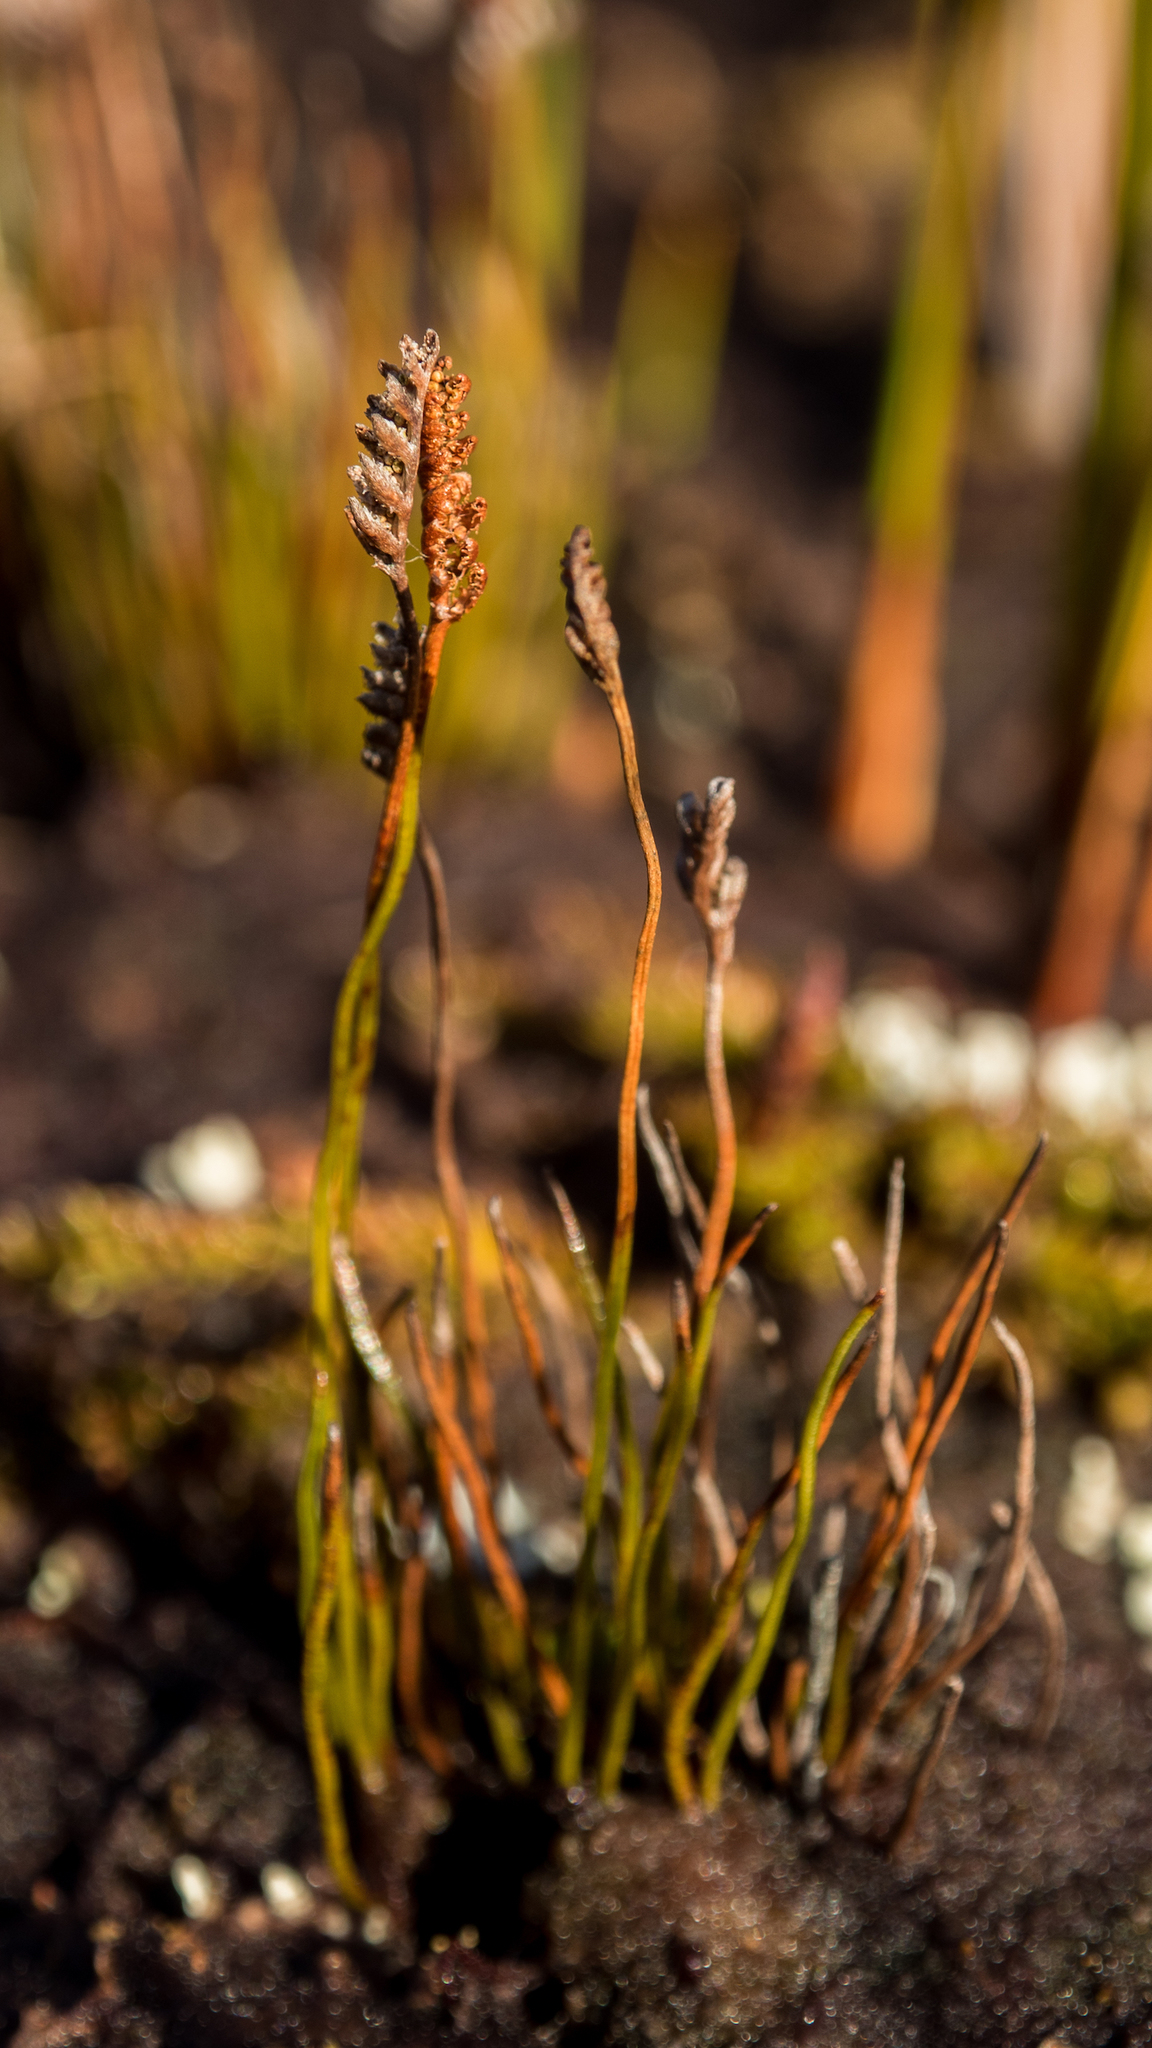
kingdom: Plantae
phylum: Tracheophyta
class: Polypodiopsida
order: Schizaeales
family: Schizaeaceae
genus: Microschizaea
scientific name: Microschizaea australis
